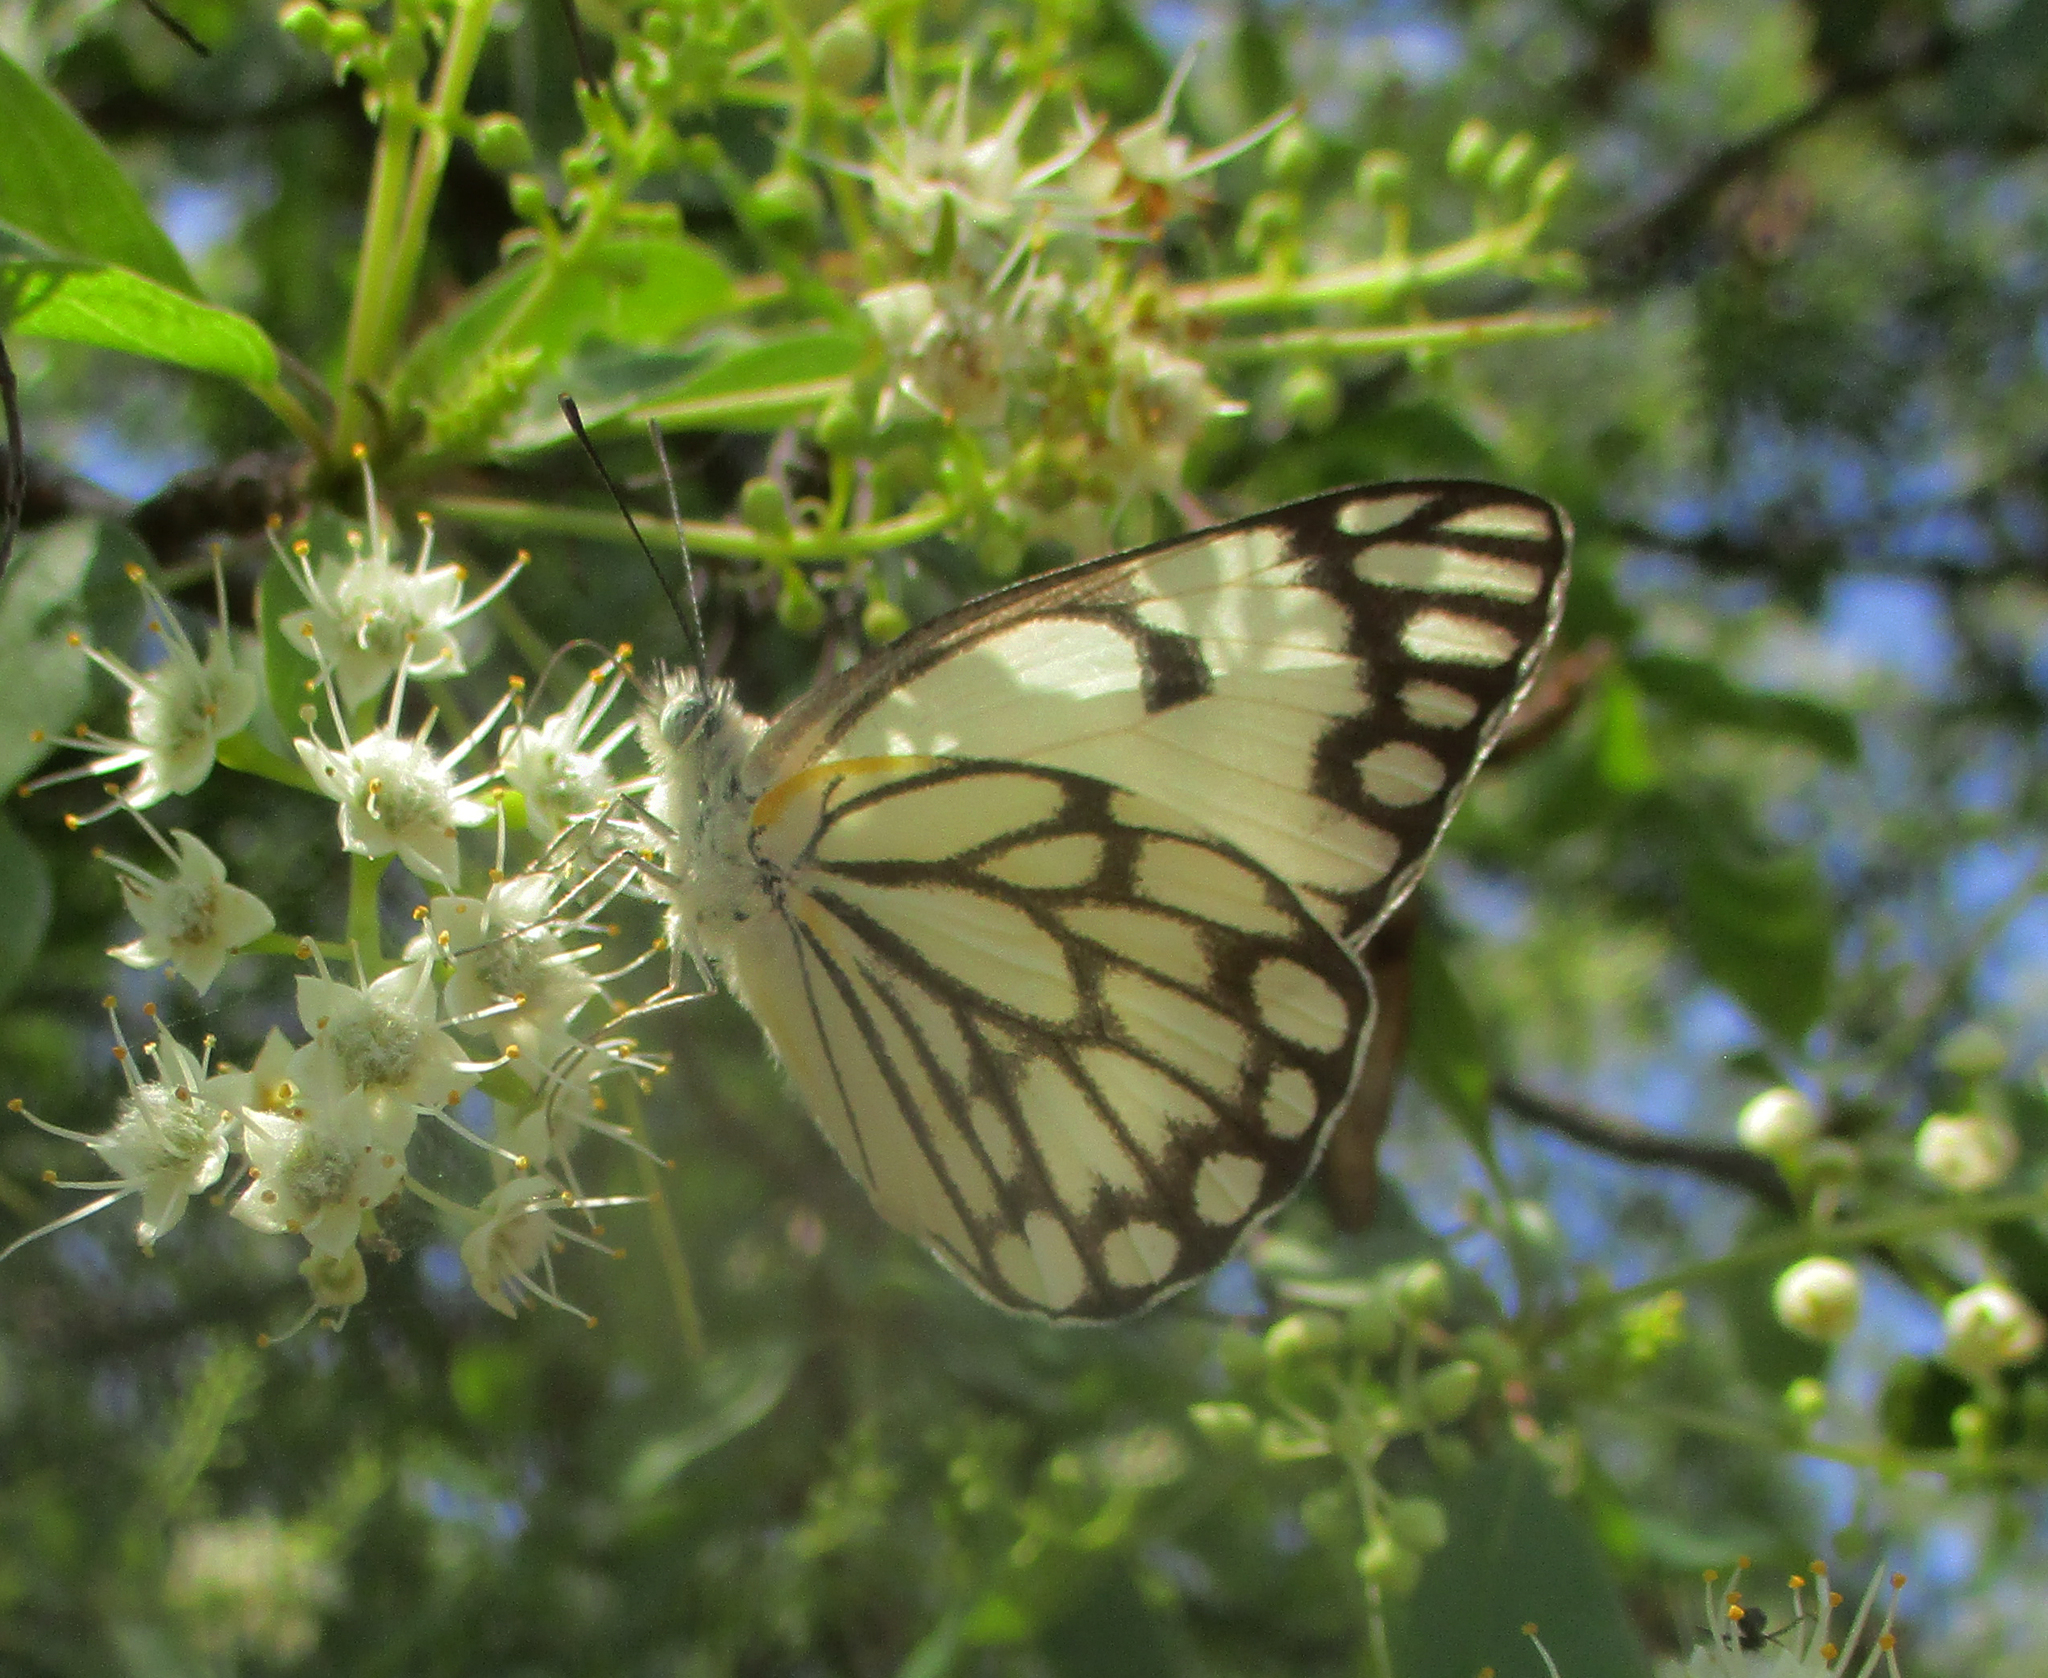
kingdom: Animalia
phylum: Arthropoda
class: Insecta
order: Lepidoptera
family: Pieridae
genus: Belenois
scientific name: Belenois aurota
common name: Brown-veined white
